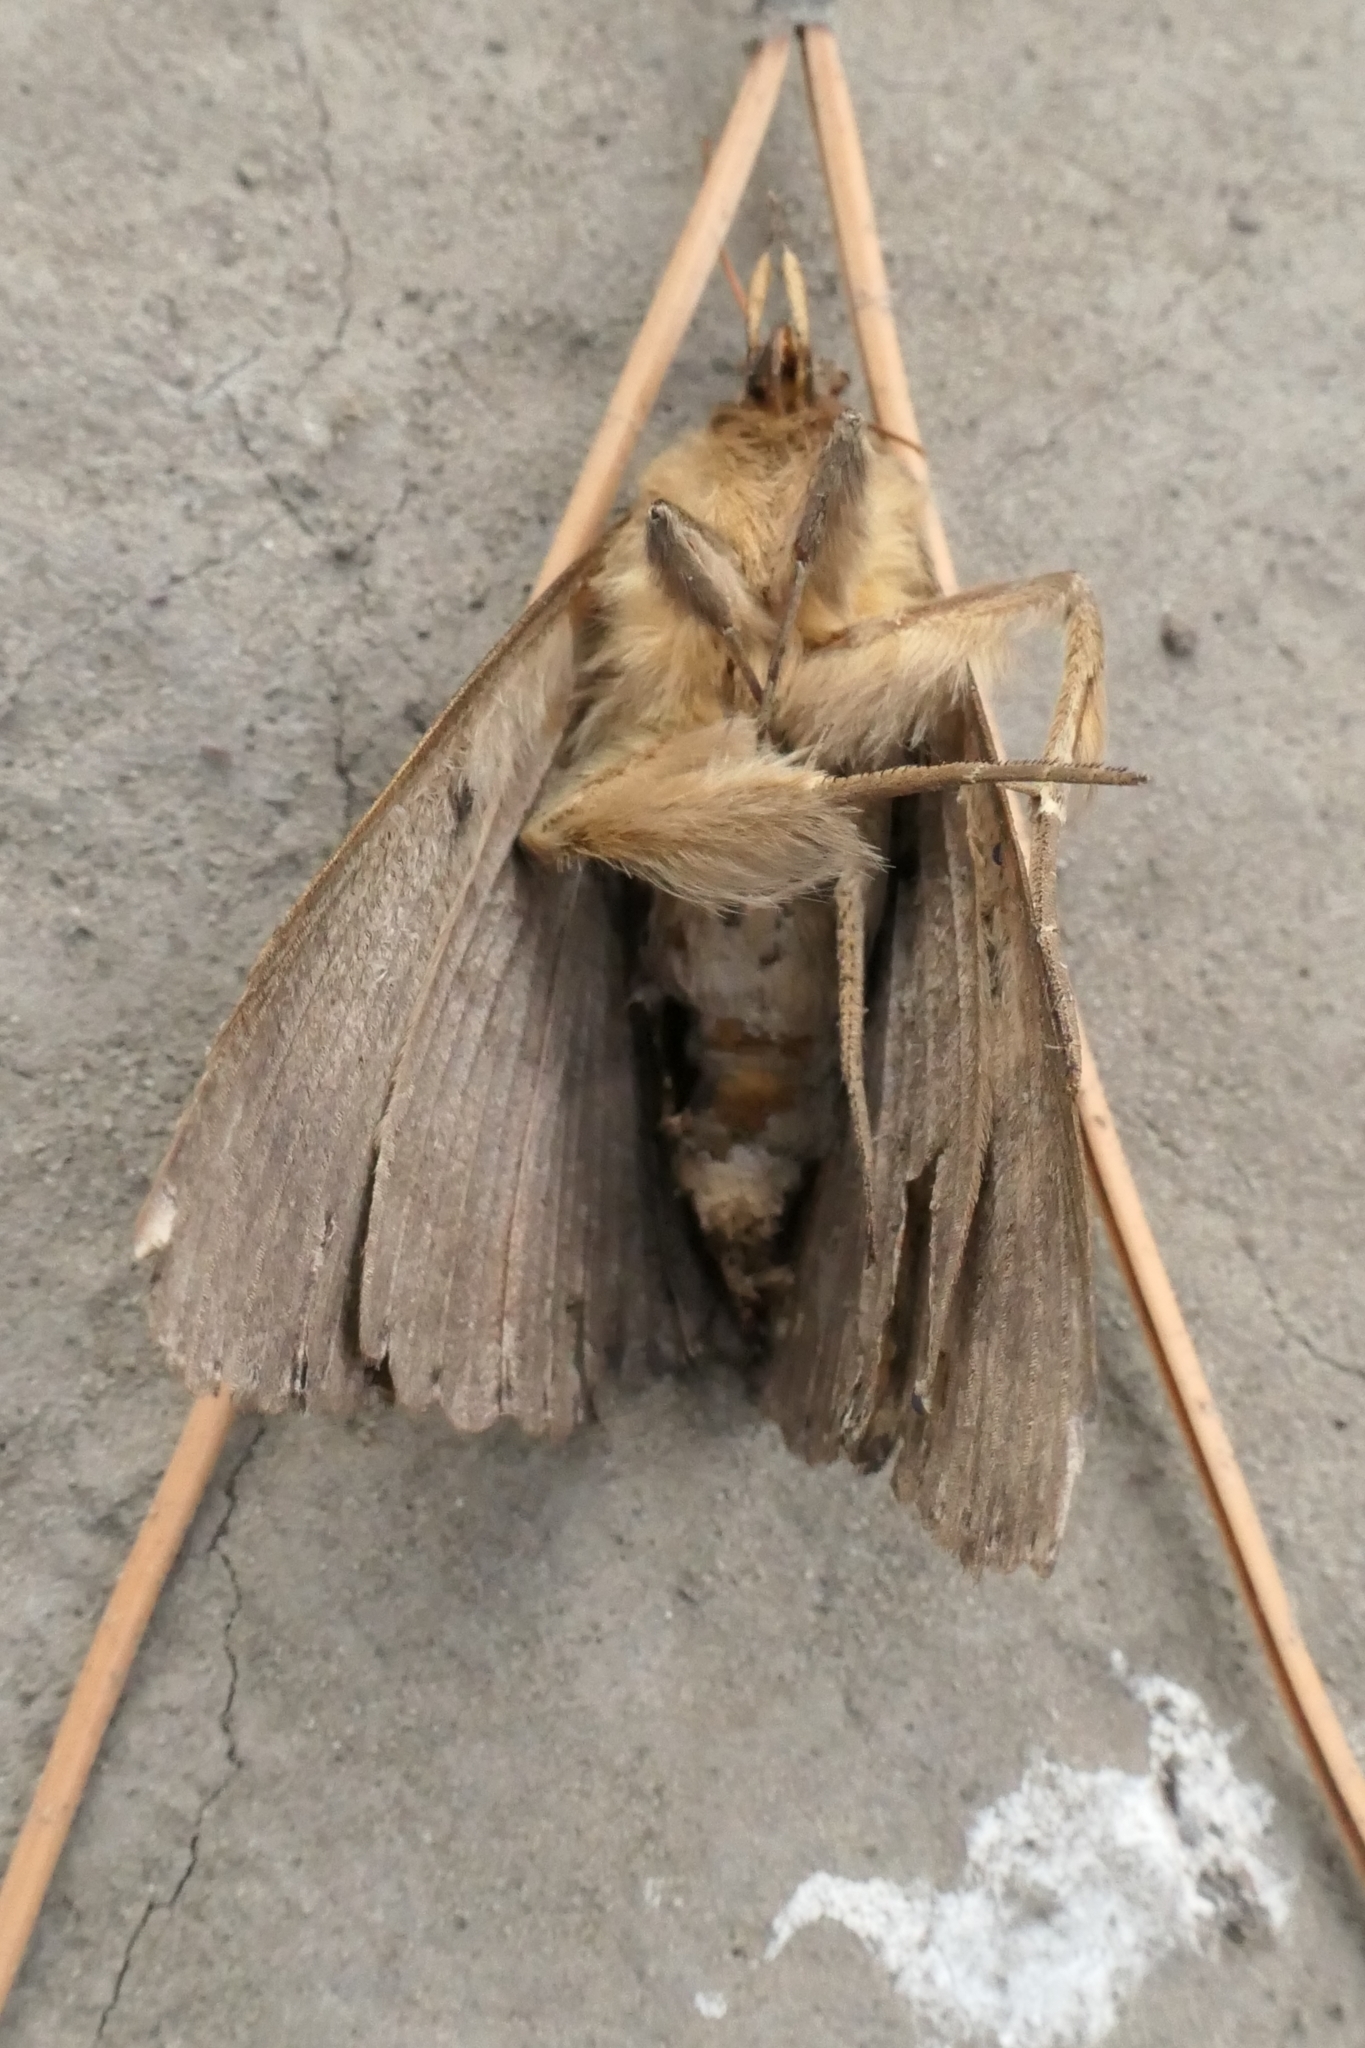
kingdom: Animalia
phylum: Arthropoda
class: Insecta
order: Lepidoptera
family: Erebidae
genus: Dasypodia
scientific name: Dasypodia cymatodes
